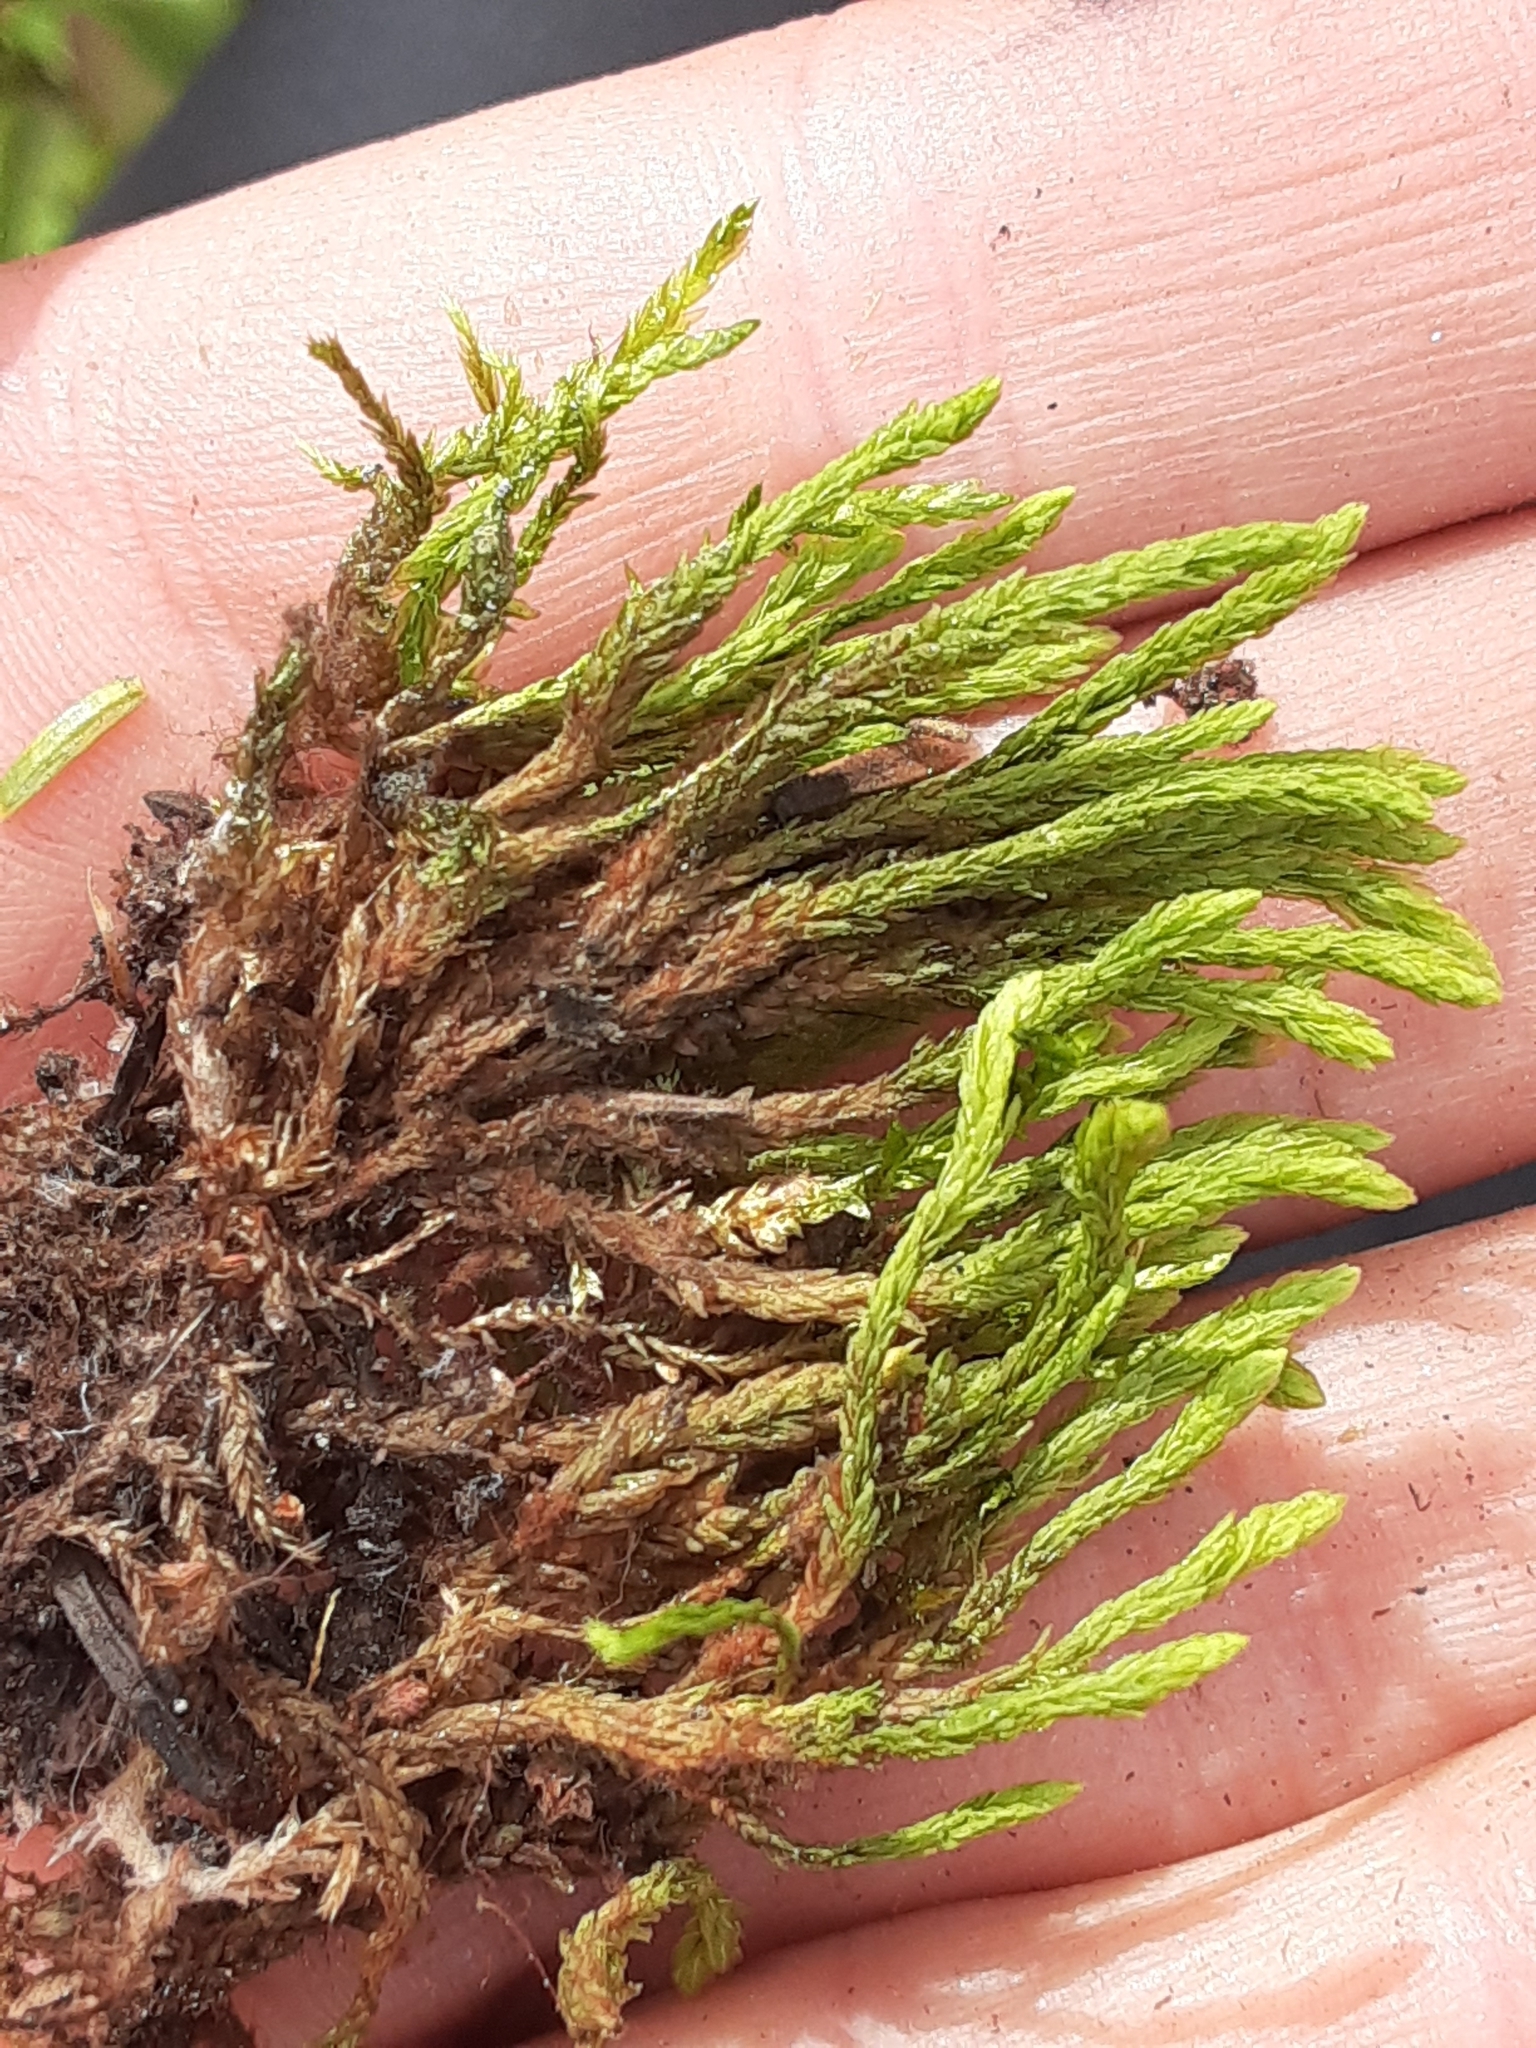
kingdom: Plantae
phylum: Bryophyta
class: Bryopsida
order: Aulacomniales
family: Aulacomniaceae
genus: Aulacomnium
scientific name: Aulacomnium turgidum
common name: Mountain groove moss
